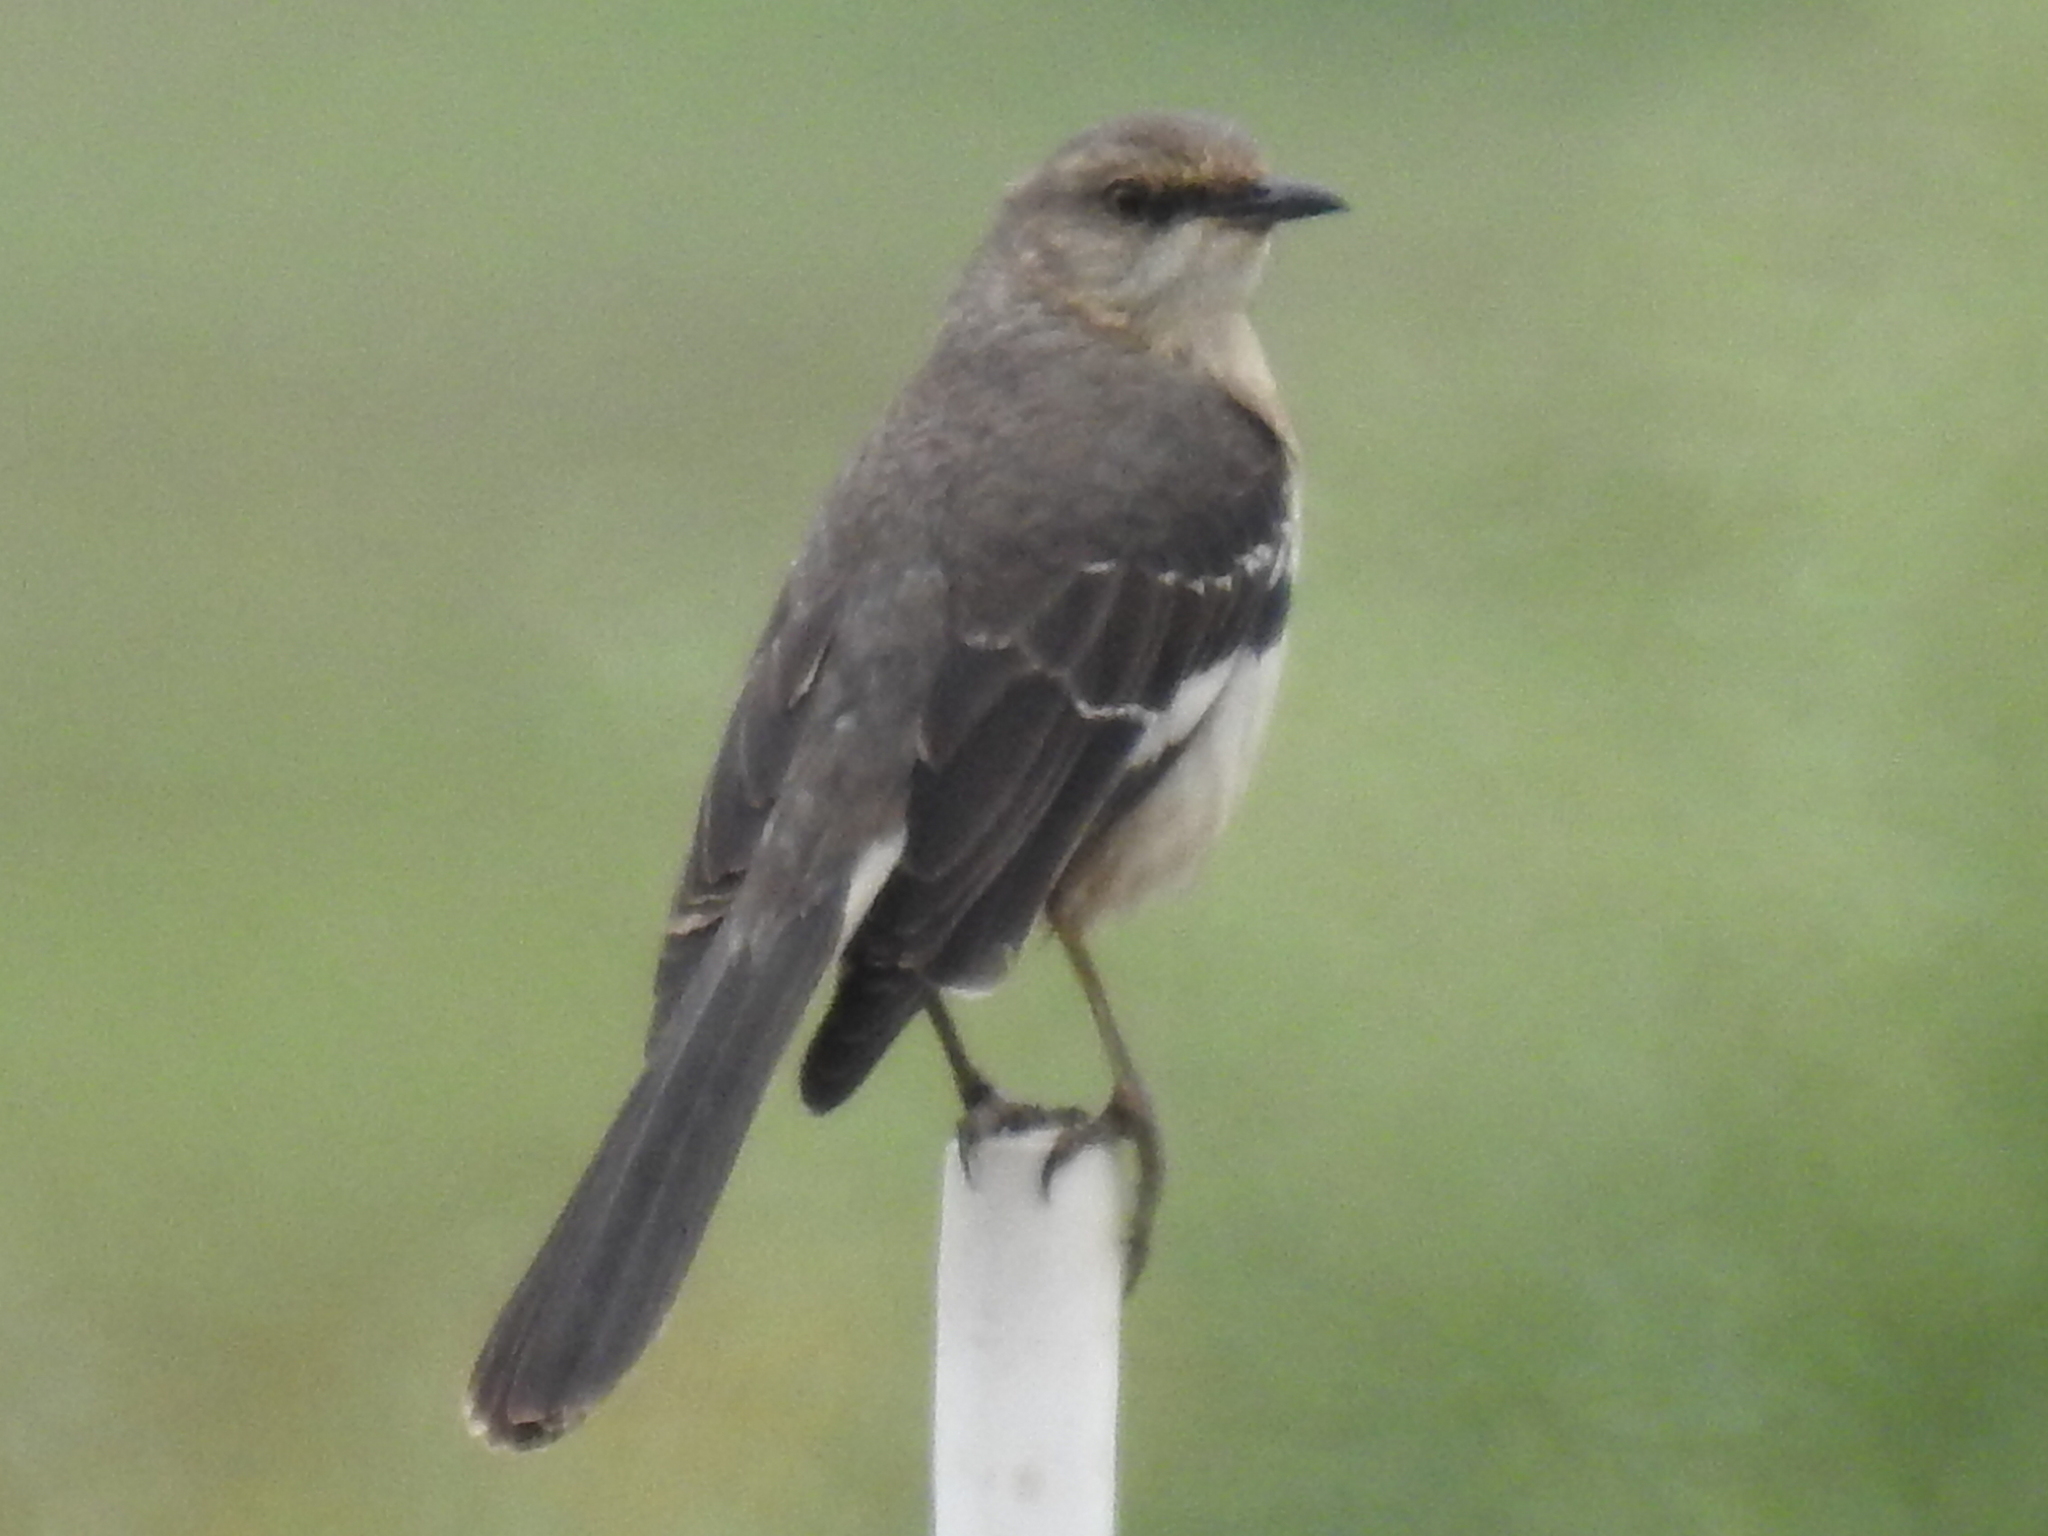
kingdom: Animalia
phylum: Chordata
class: Aves
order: Passeriformes
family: Mimidae
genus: Mimus
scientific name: Mimus polyglottos
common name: Northern mockingbird
